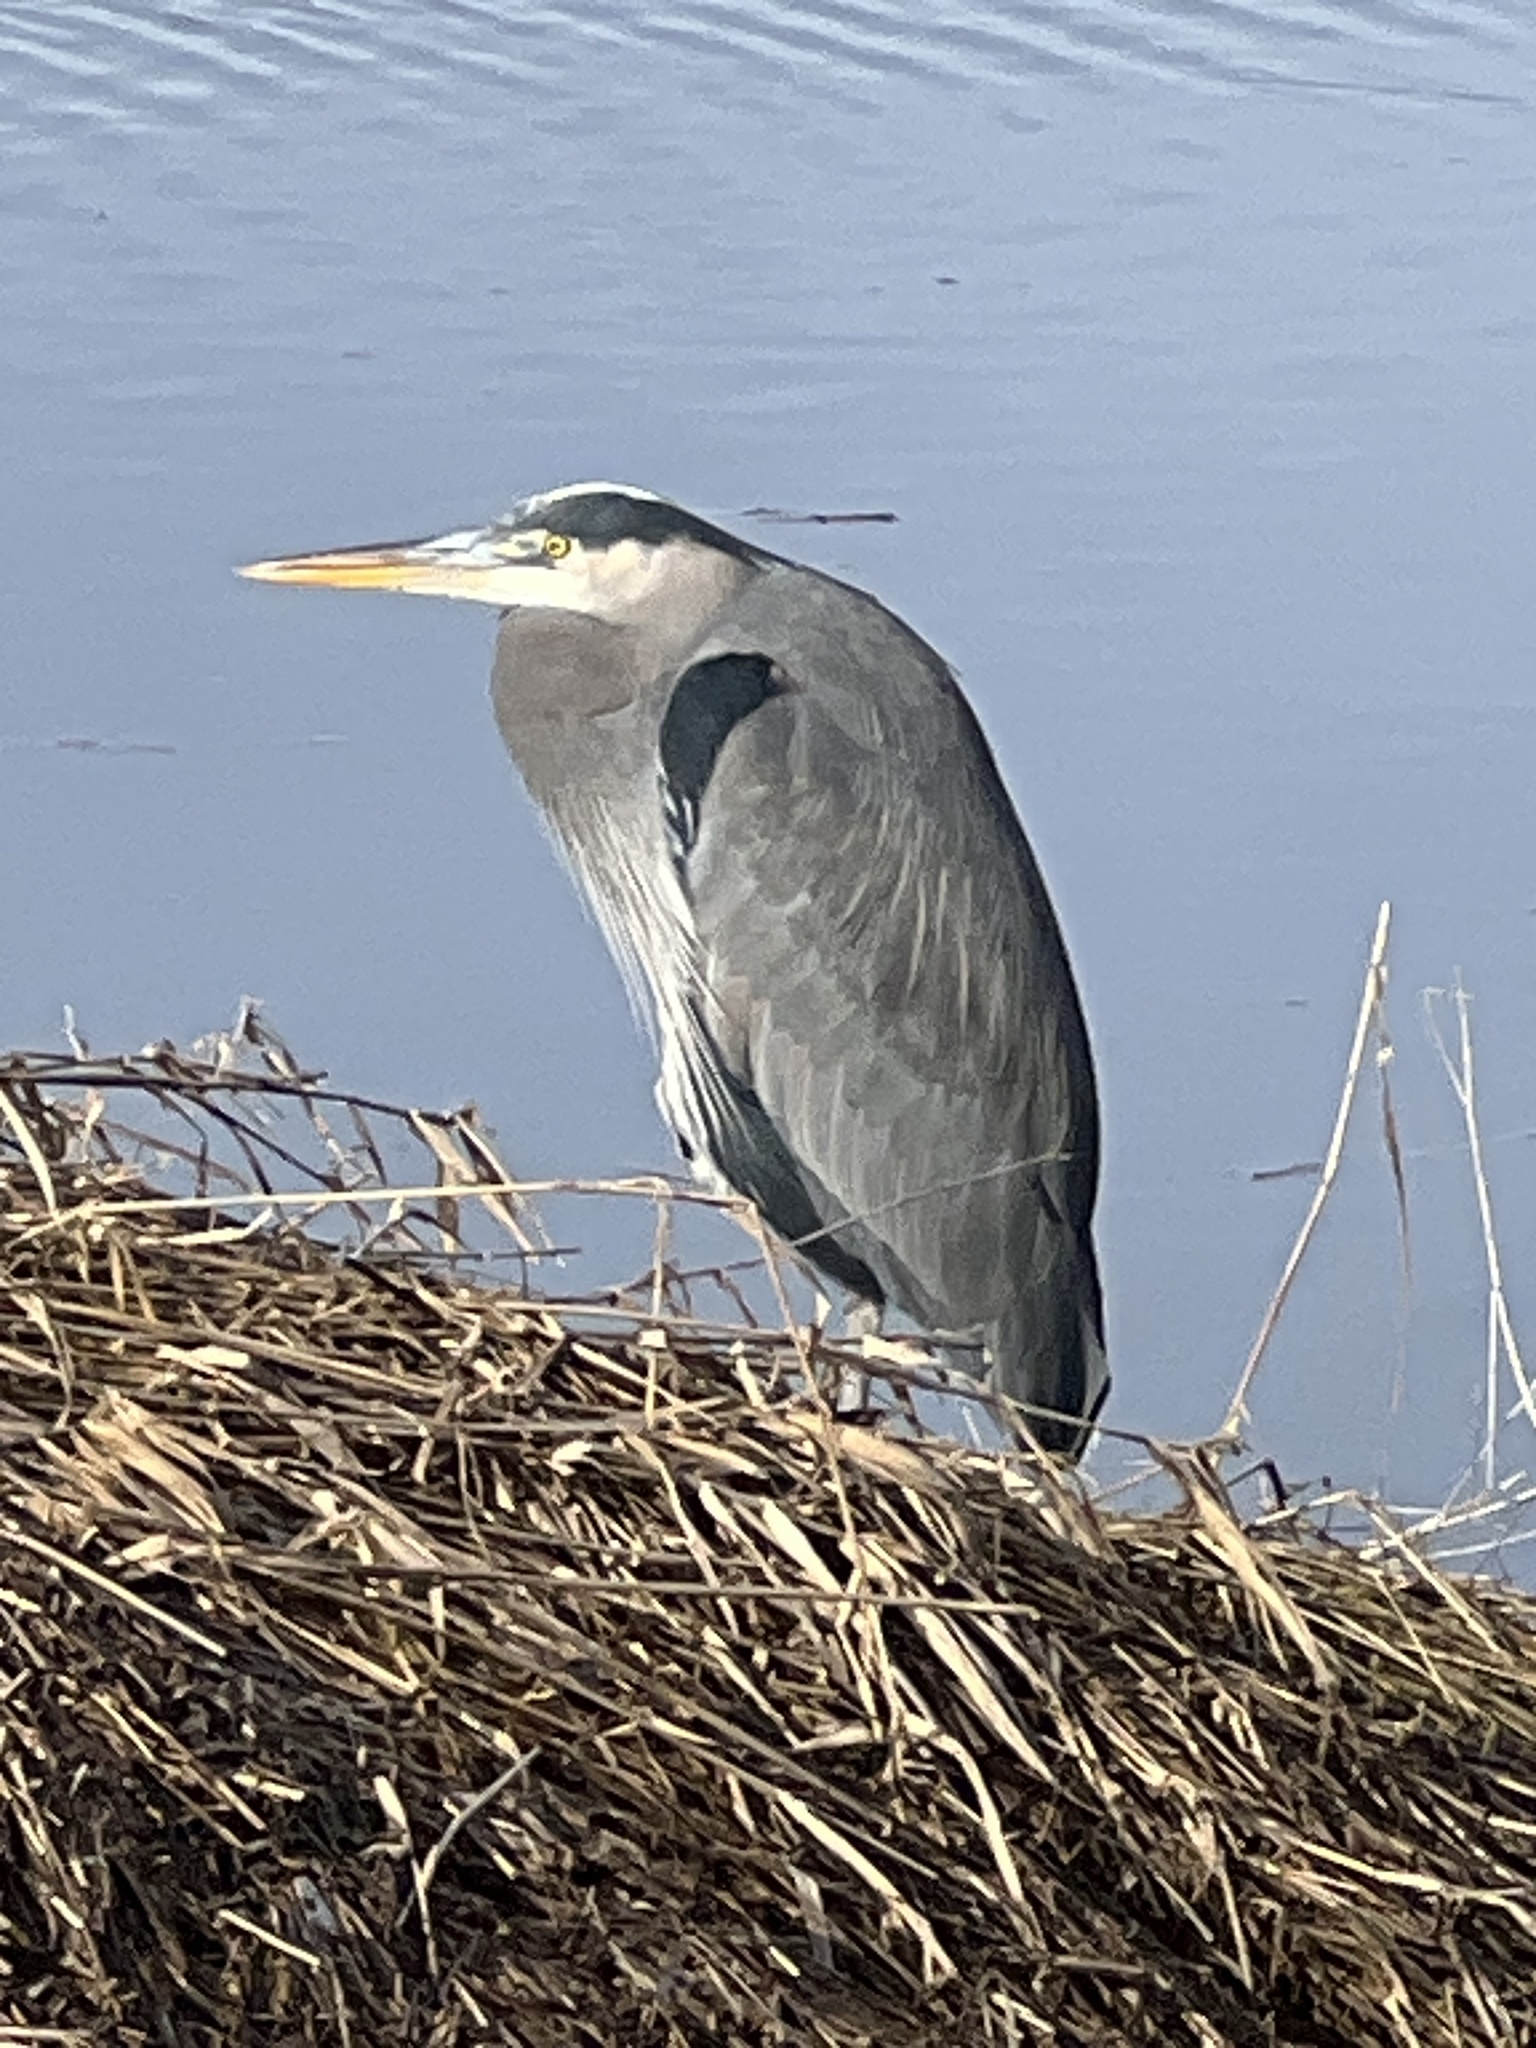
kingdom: Animalia
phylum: Chordata
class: Aves
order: Pelecaniformes
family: Ardeidae
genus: Ardea
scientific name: Ardea herodias
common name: Great blue heron
